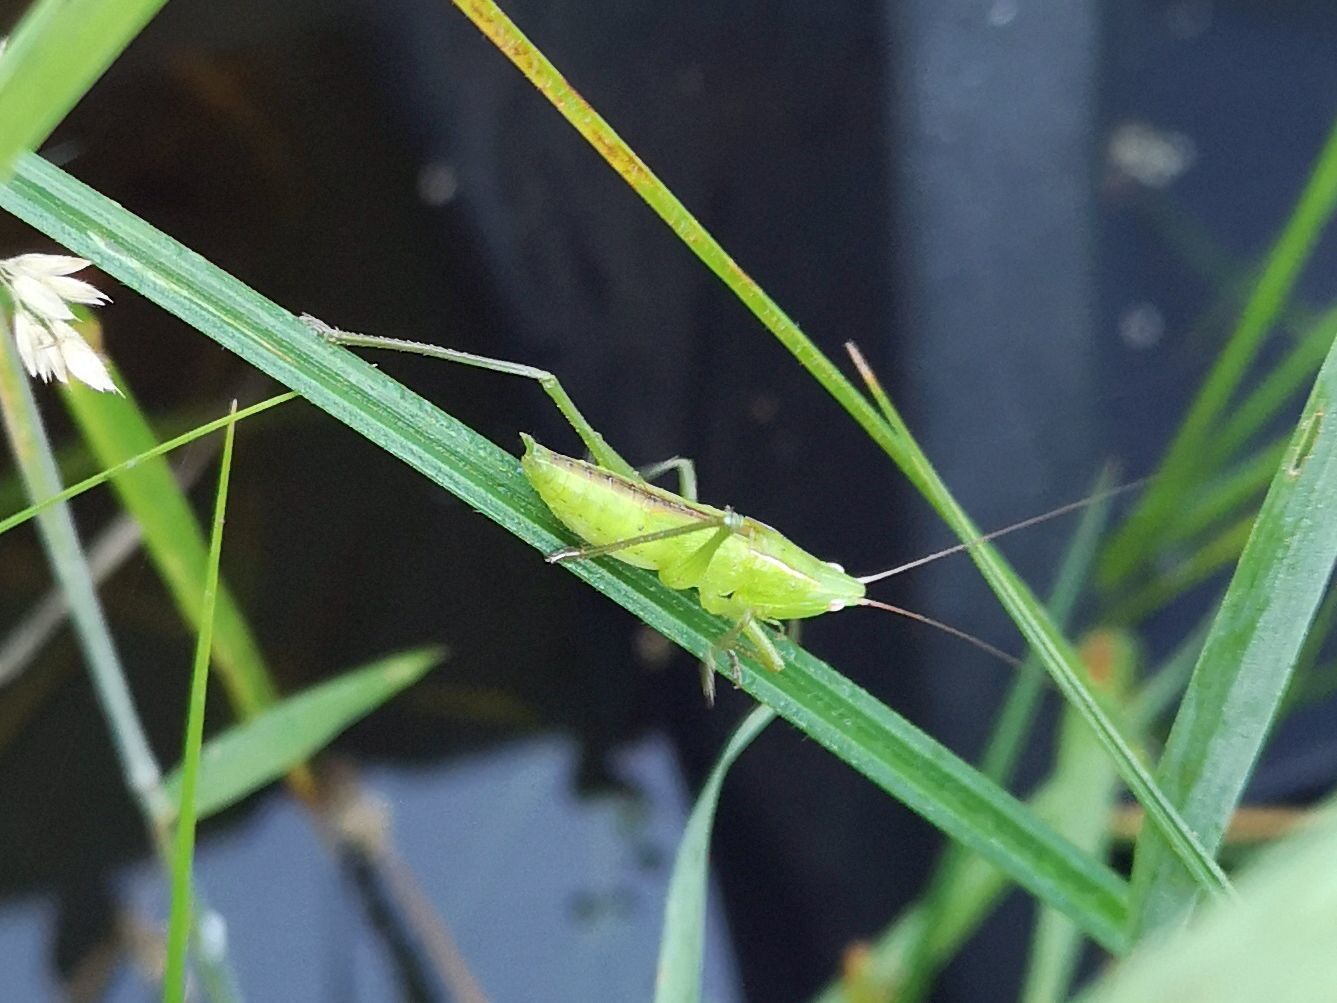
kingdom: Animalia
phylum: Arthropoda
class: Insecta
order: Orthoptera
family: Tettigoniidae
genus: Ruspolia
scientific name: Ruspolia nitidula
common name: Large conehead
